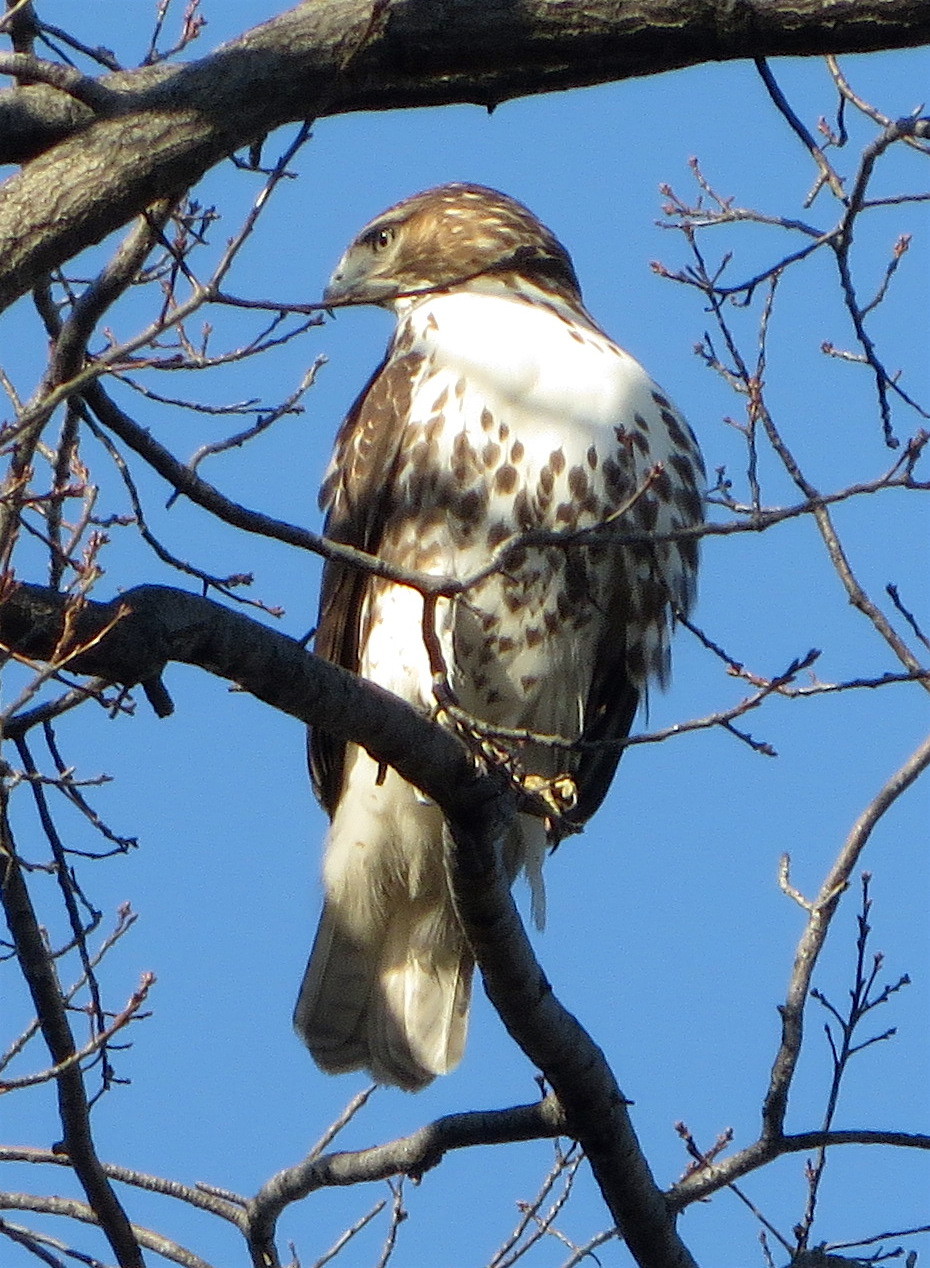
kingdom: Animalia
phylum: Chordata
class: Aves
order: Accipitriformes
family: Accipitridae
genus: Buteo
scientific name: Buteo jamaicensis
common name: Red-tailed hawk
